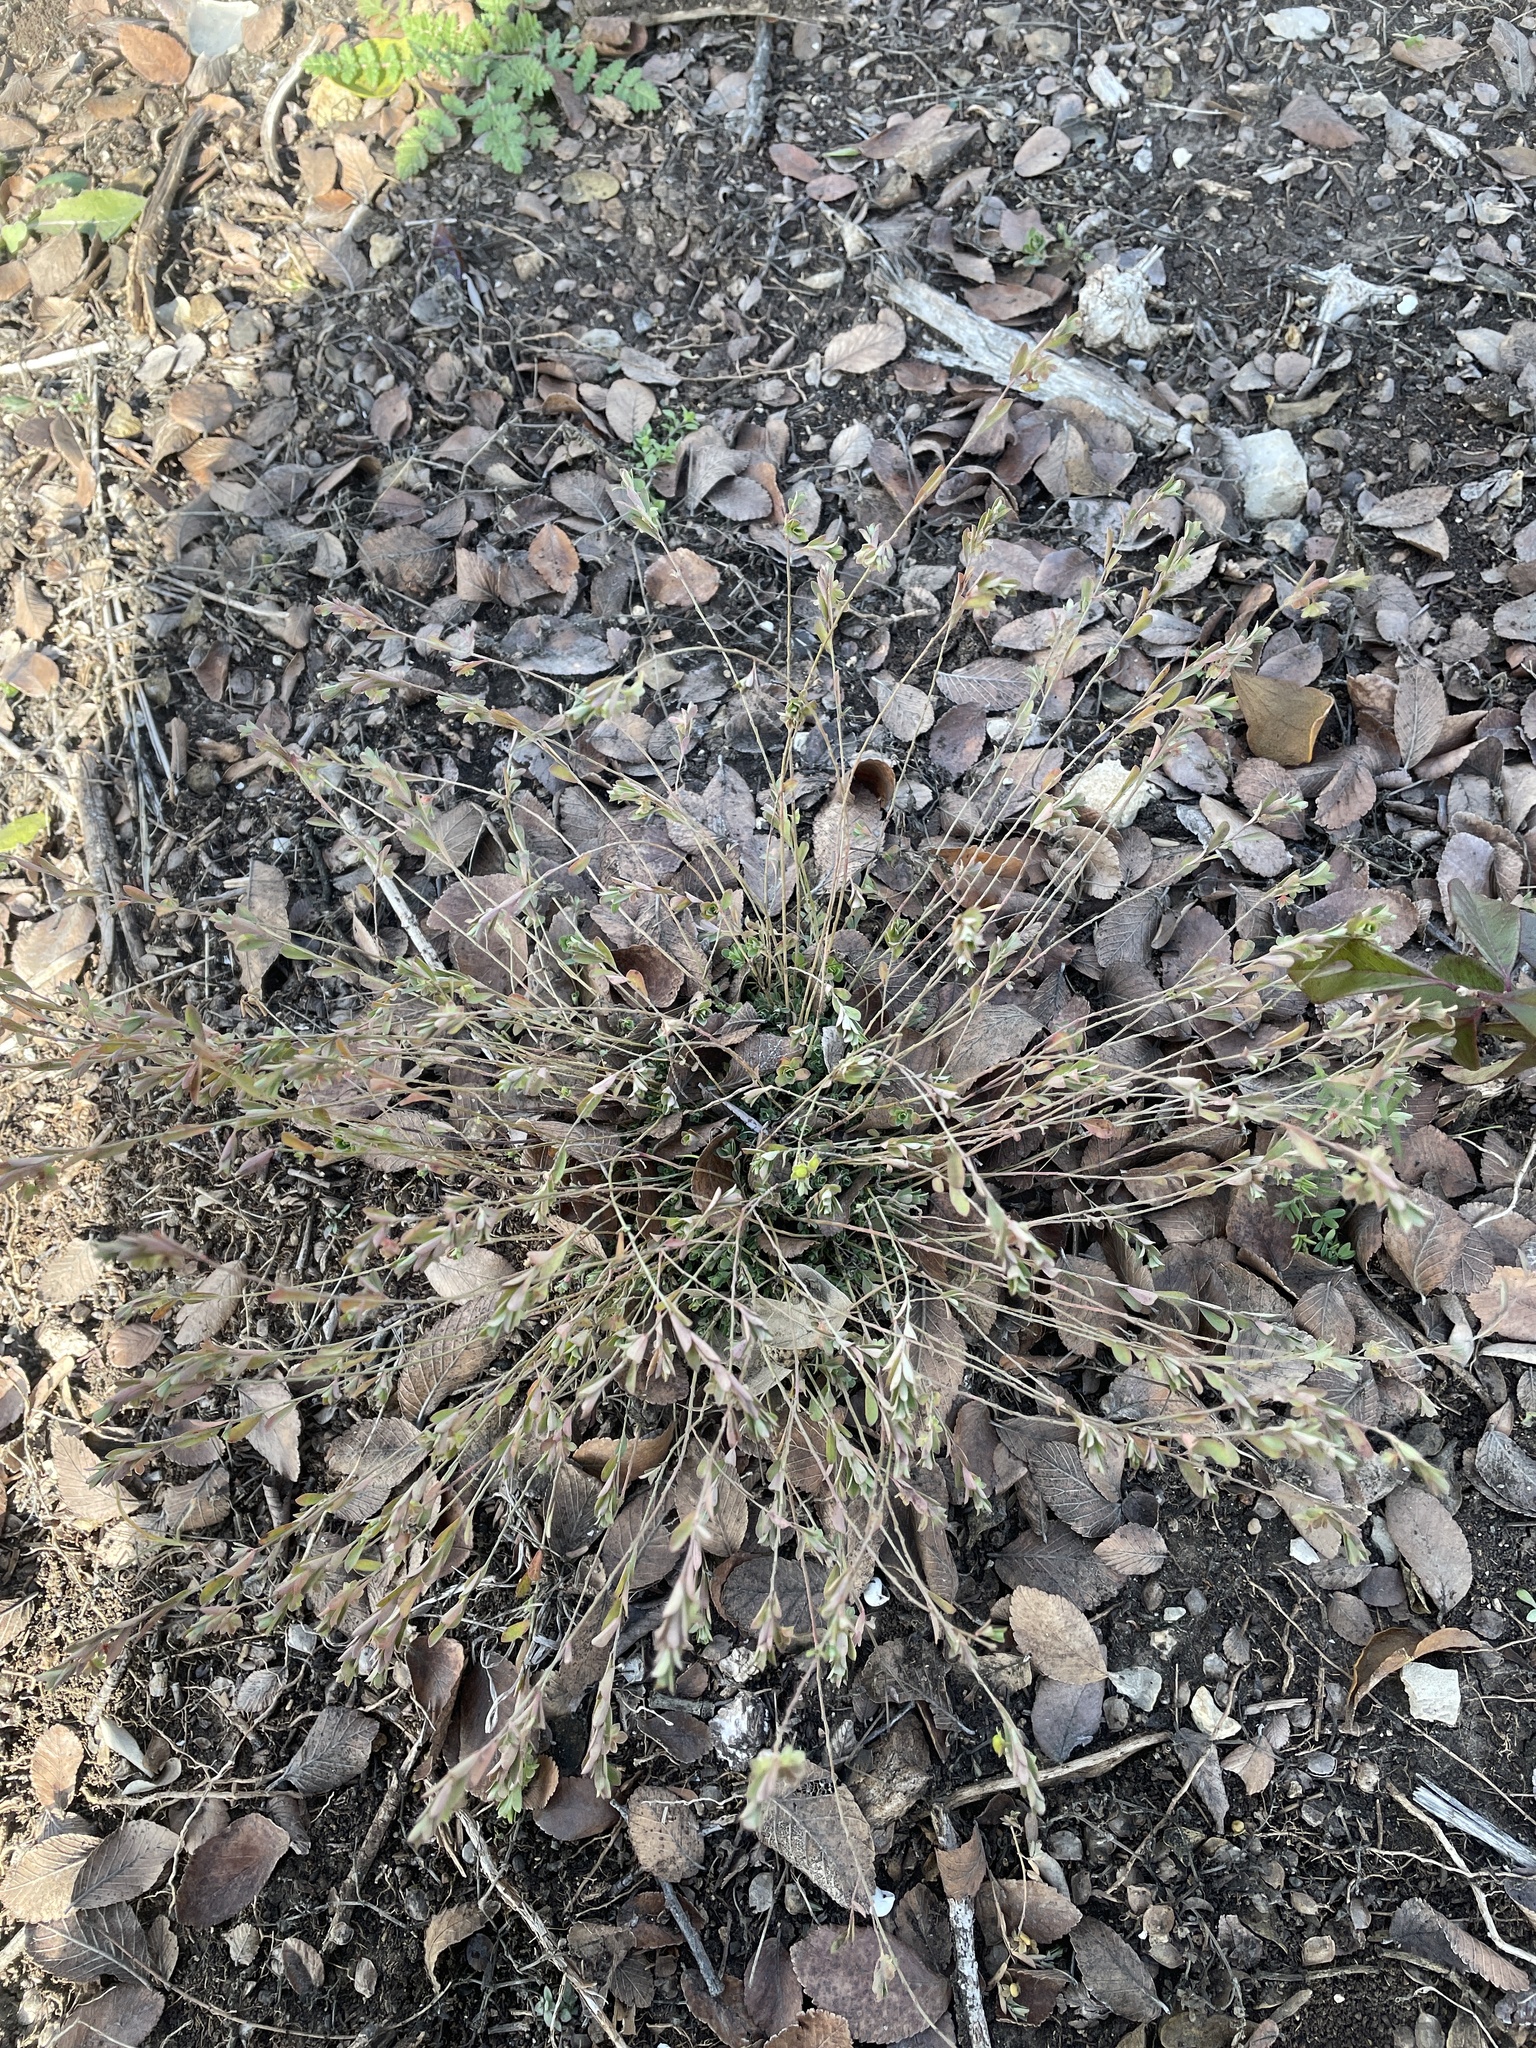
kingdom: Plantae
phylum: Tracheophyta
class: Magnoliopsida
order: Malpighiales
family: Phyllanthaceae
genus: Phyllanthus
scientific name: Phyllanthus polygonoides
